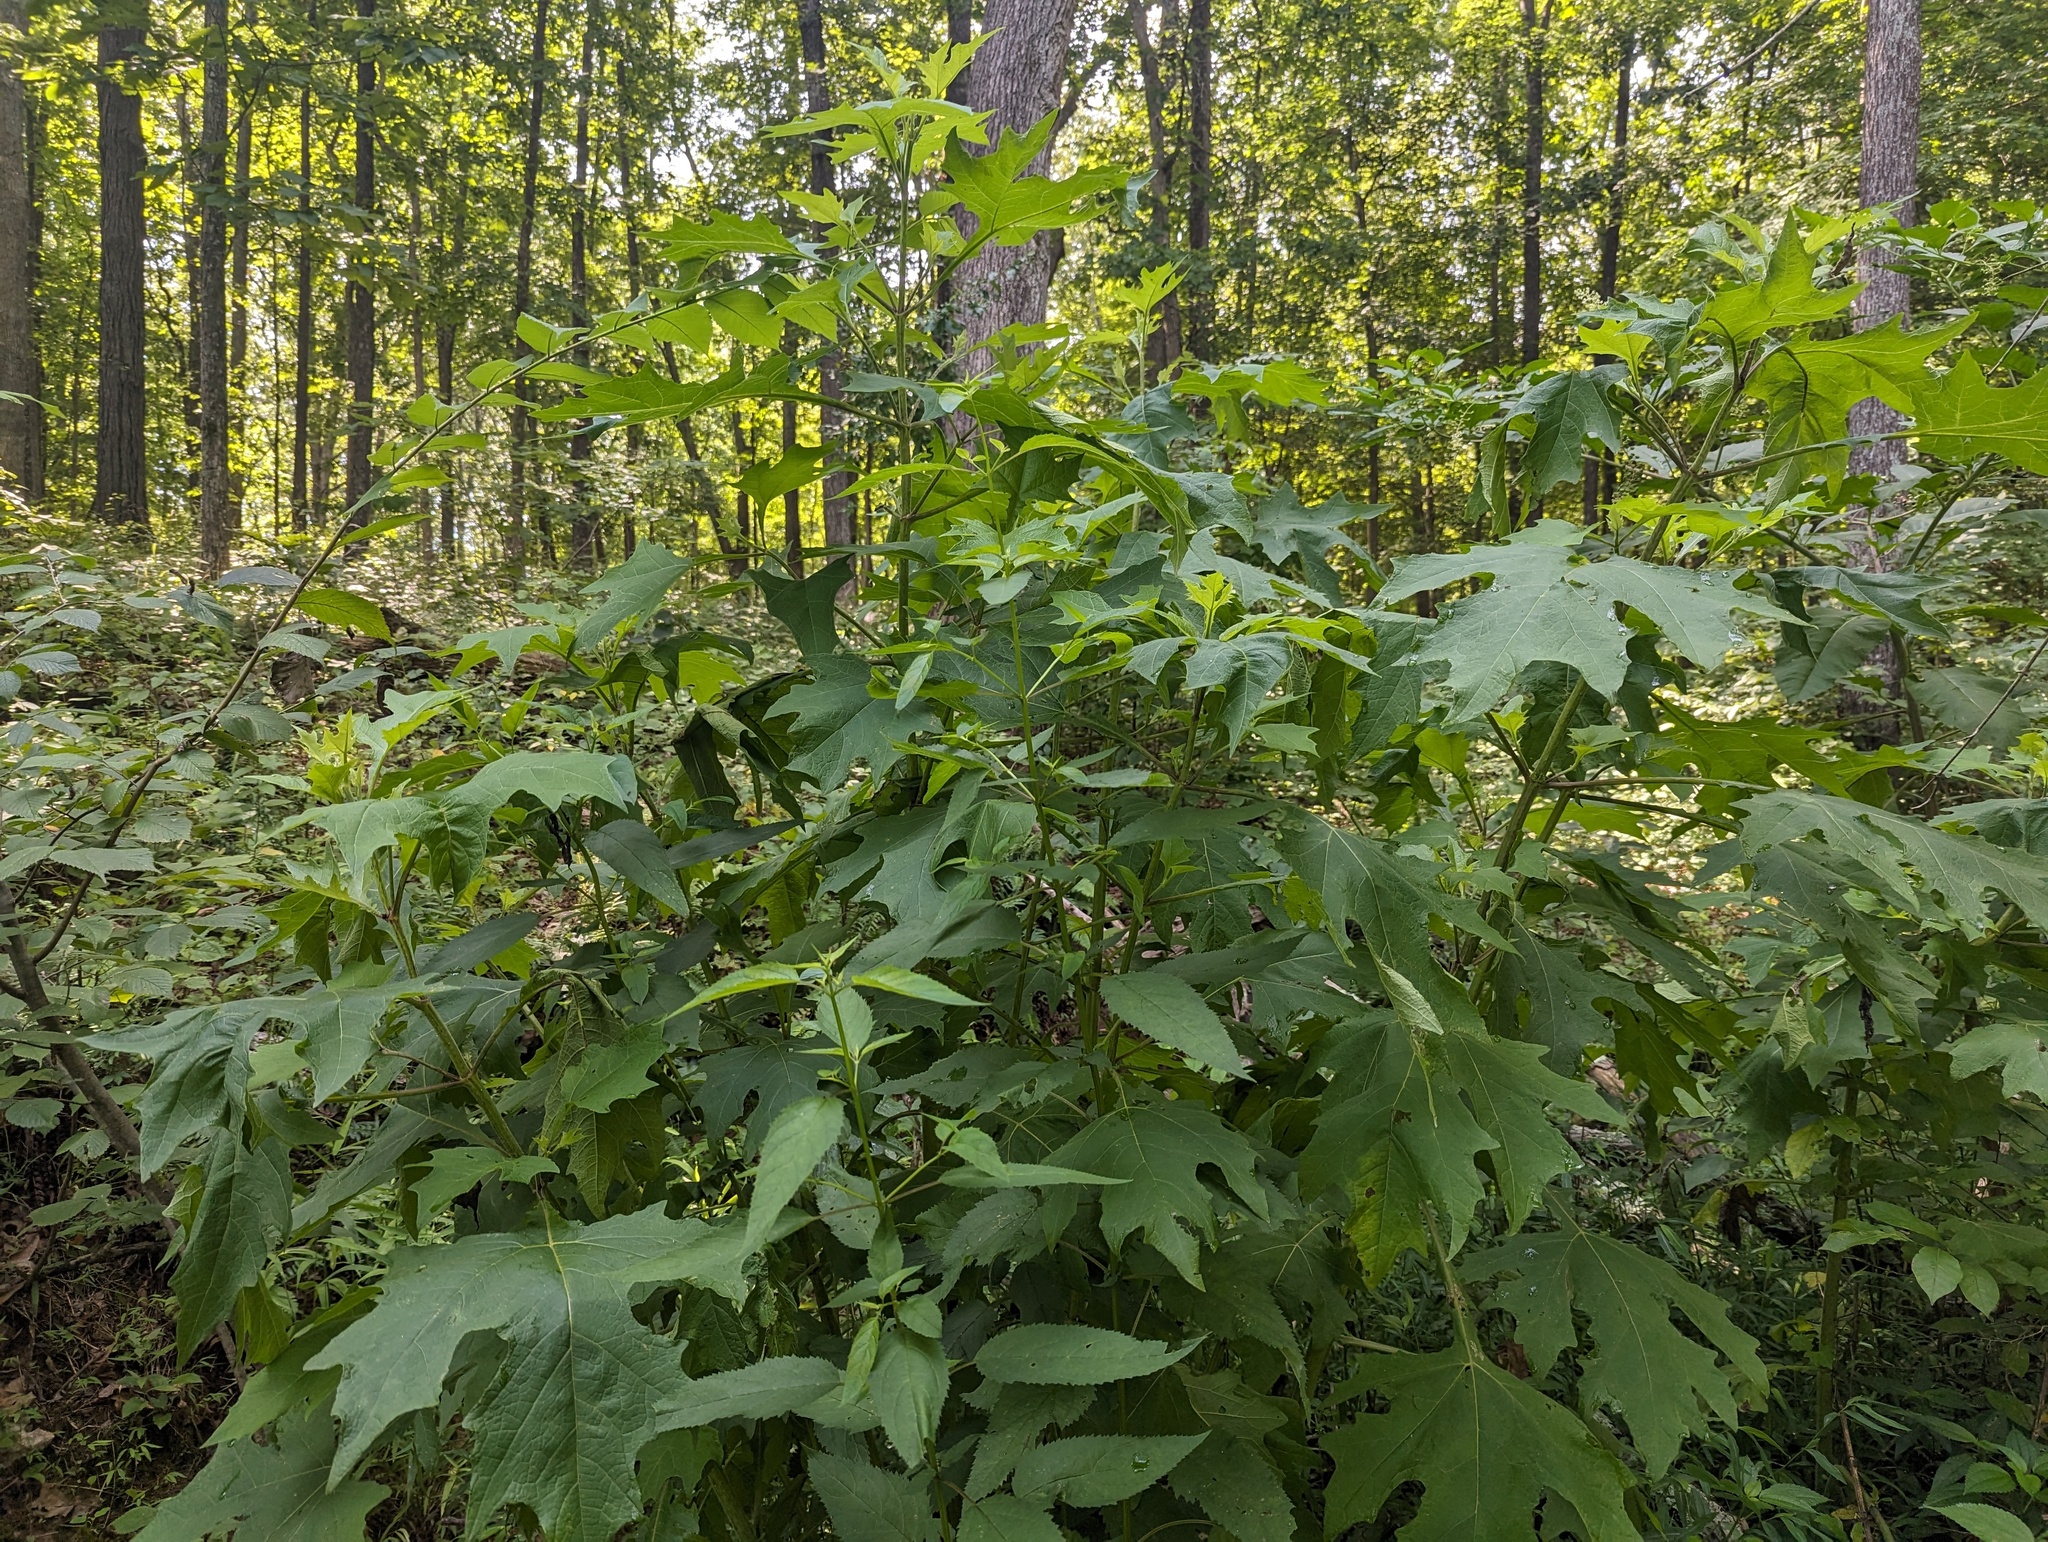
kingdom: Plantae
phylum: Tracheophyta
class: Magnoliopsida
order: Asterales
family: Asteraceae
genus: Smallanthus
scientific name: Smallanthus uvedalia
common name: Bear's-foot
